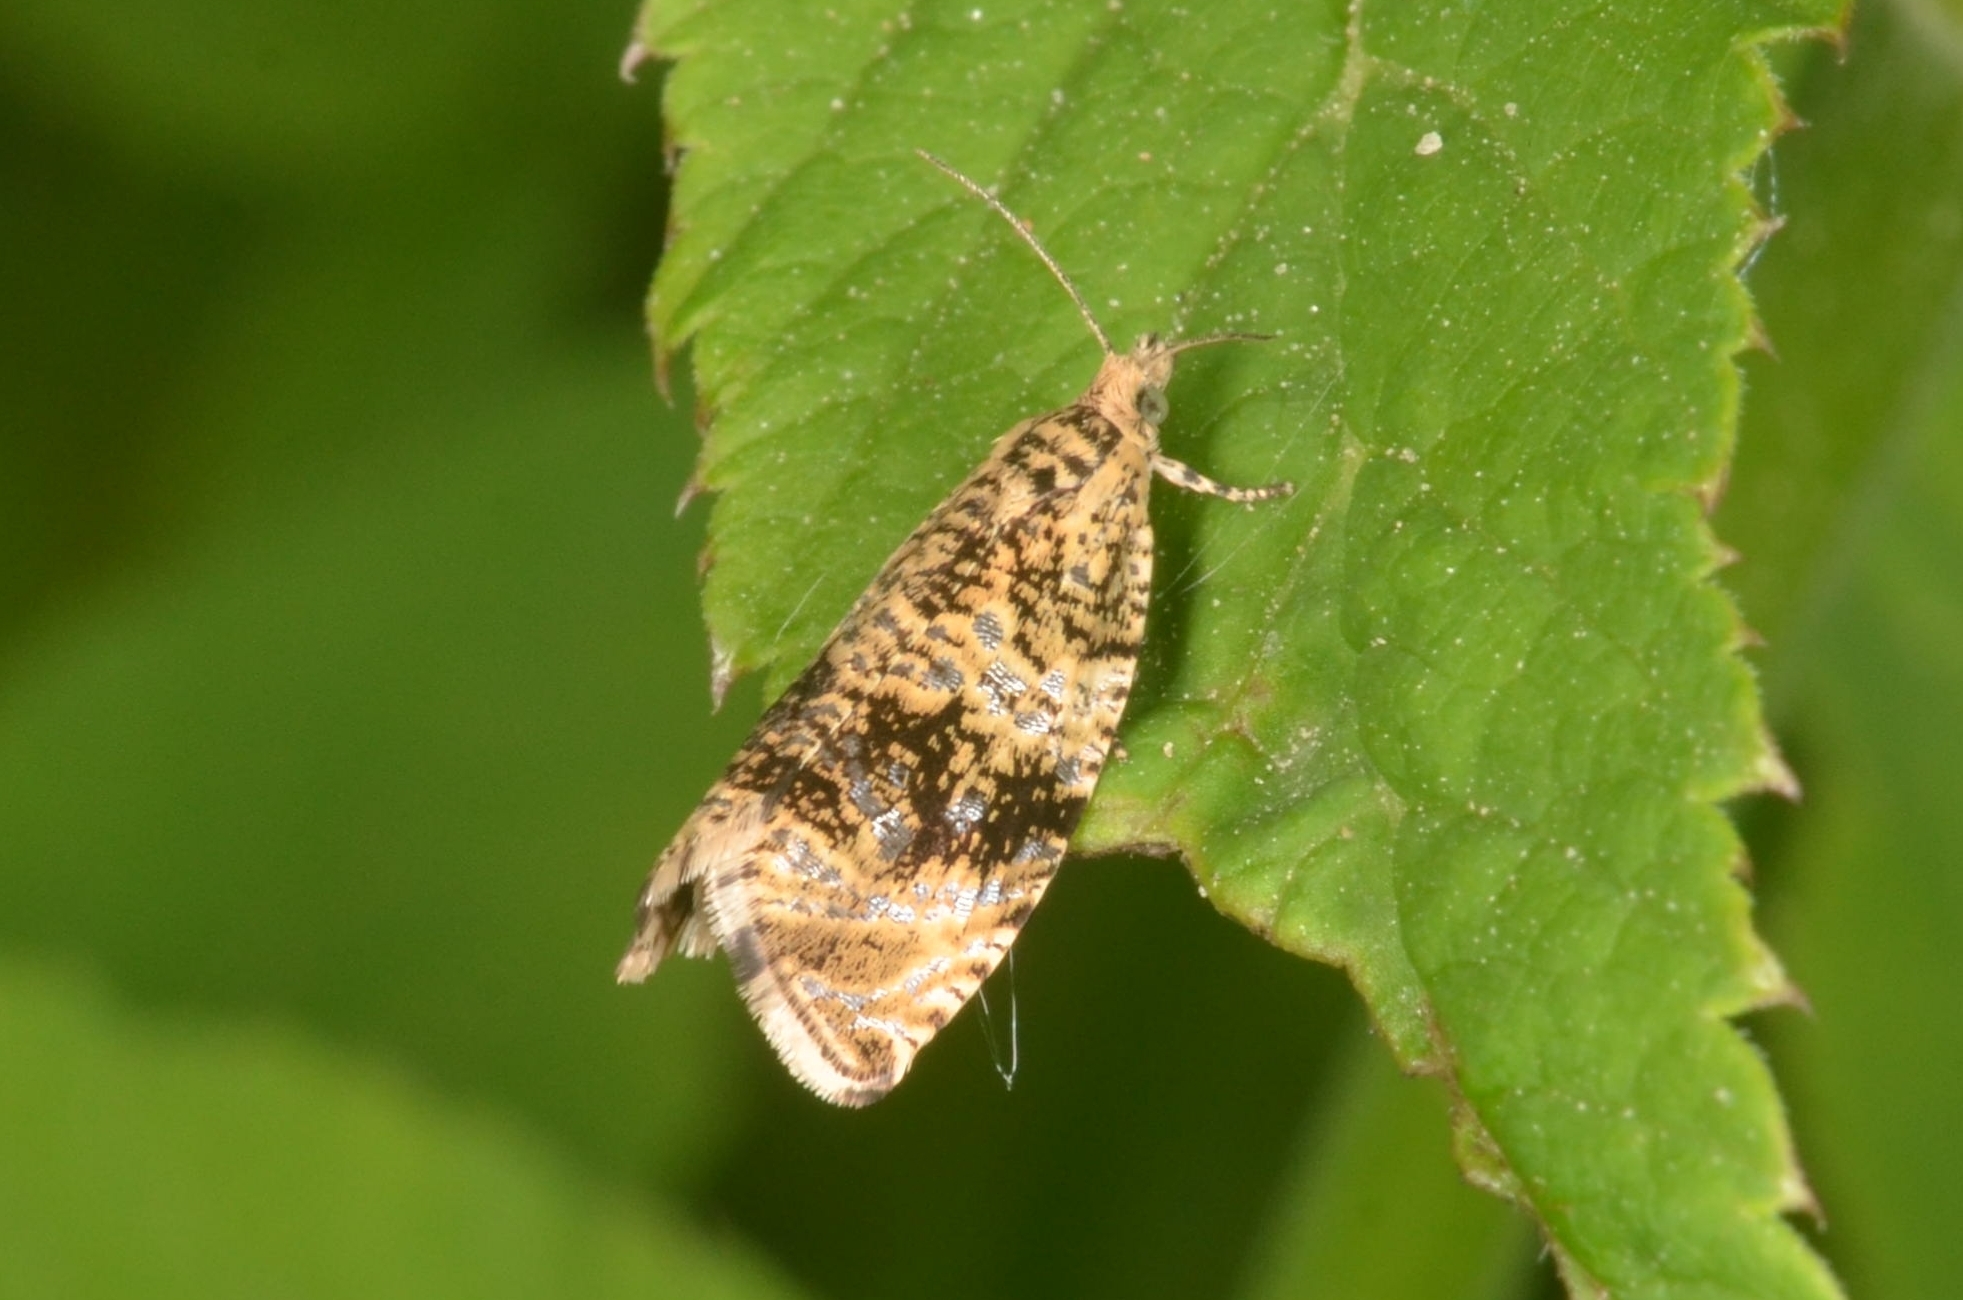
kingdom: Animalia
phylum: Arthropoda
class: Insecta
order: Lepidoptera
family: Tortricidae
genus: Syricoris
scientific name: Syricoris lacunana
